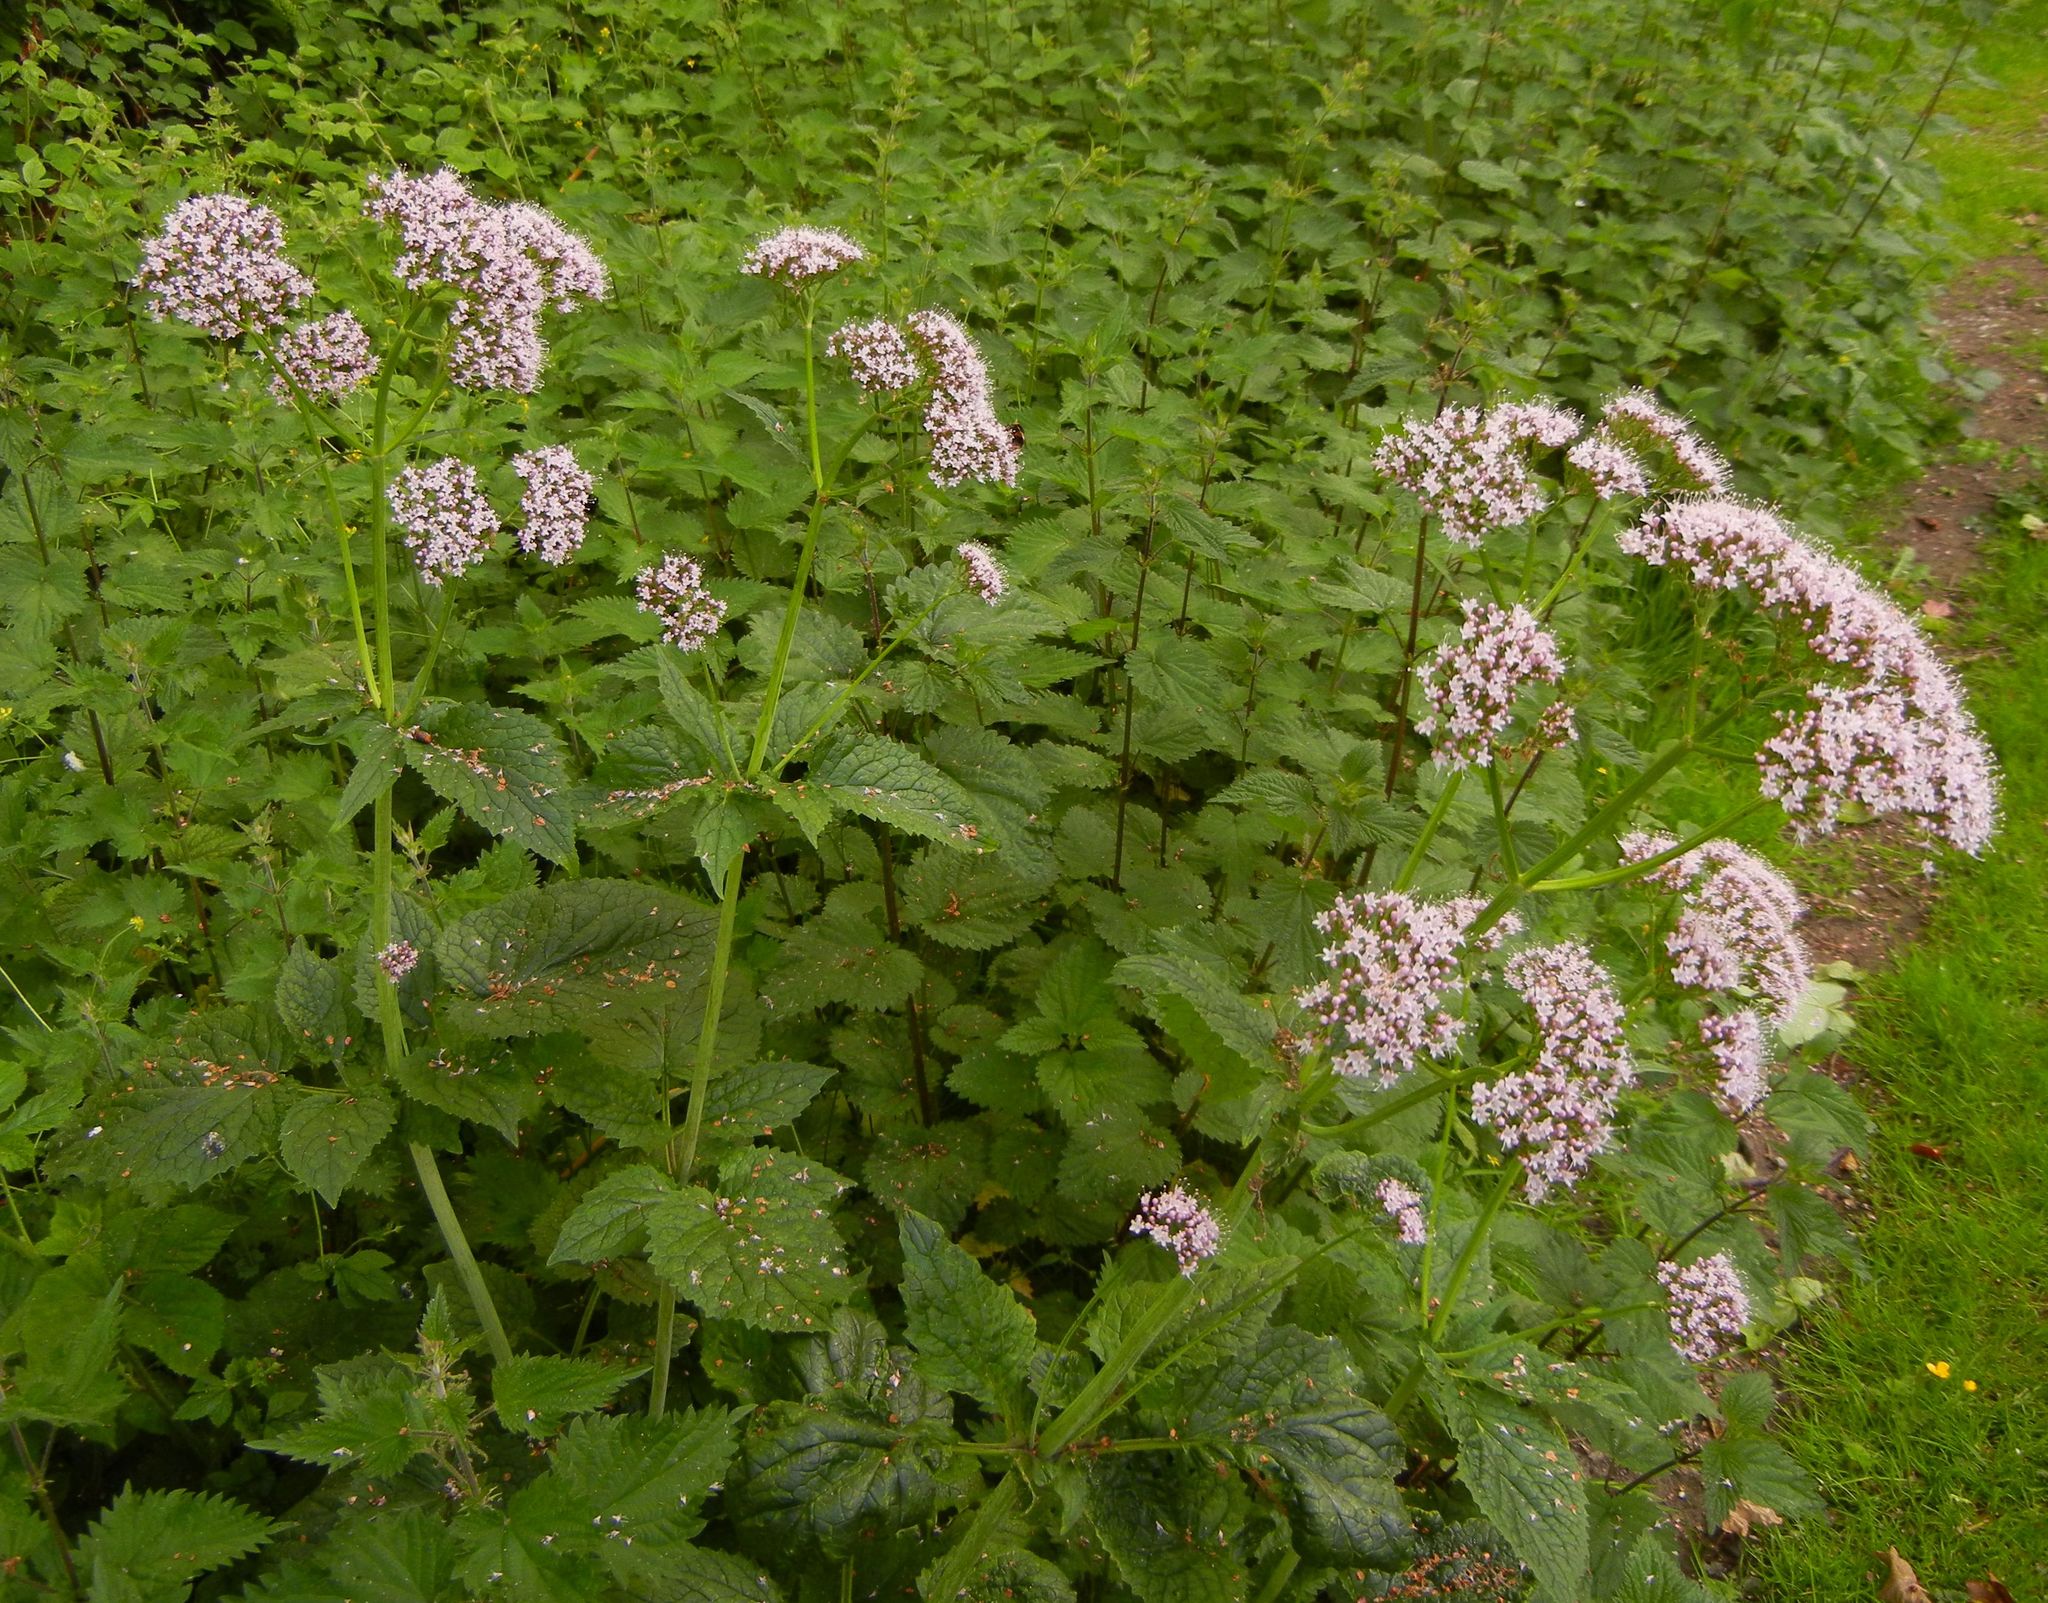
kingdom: Plantae
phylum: Tracheophyta
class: Magnoliopsida
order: Dipsacales
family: Caprifoliaceae
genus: Valeriana
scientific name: Valeriana pyrenaica
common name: Pyrenean valerian
